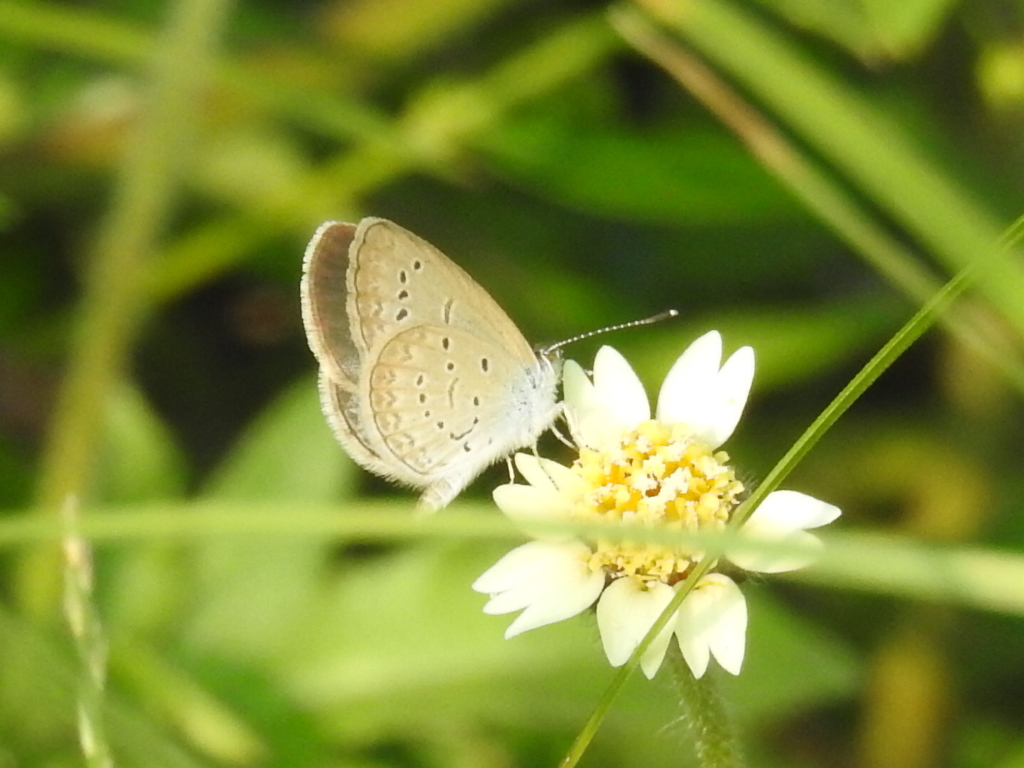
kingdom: Animalia
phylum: Arthropoda
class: Insecta
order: Lepidoptera
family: Lycaenidae
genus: Zizina
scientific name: Zizina otis
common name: Lesser grass blue
